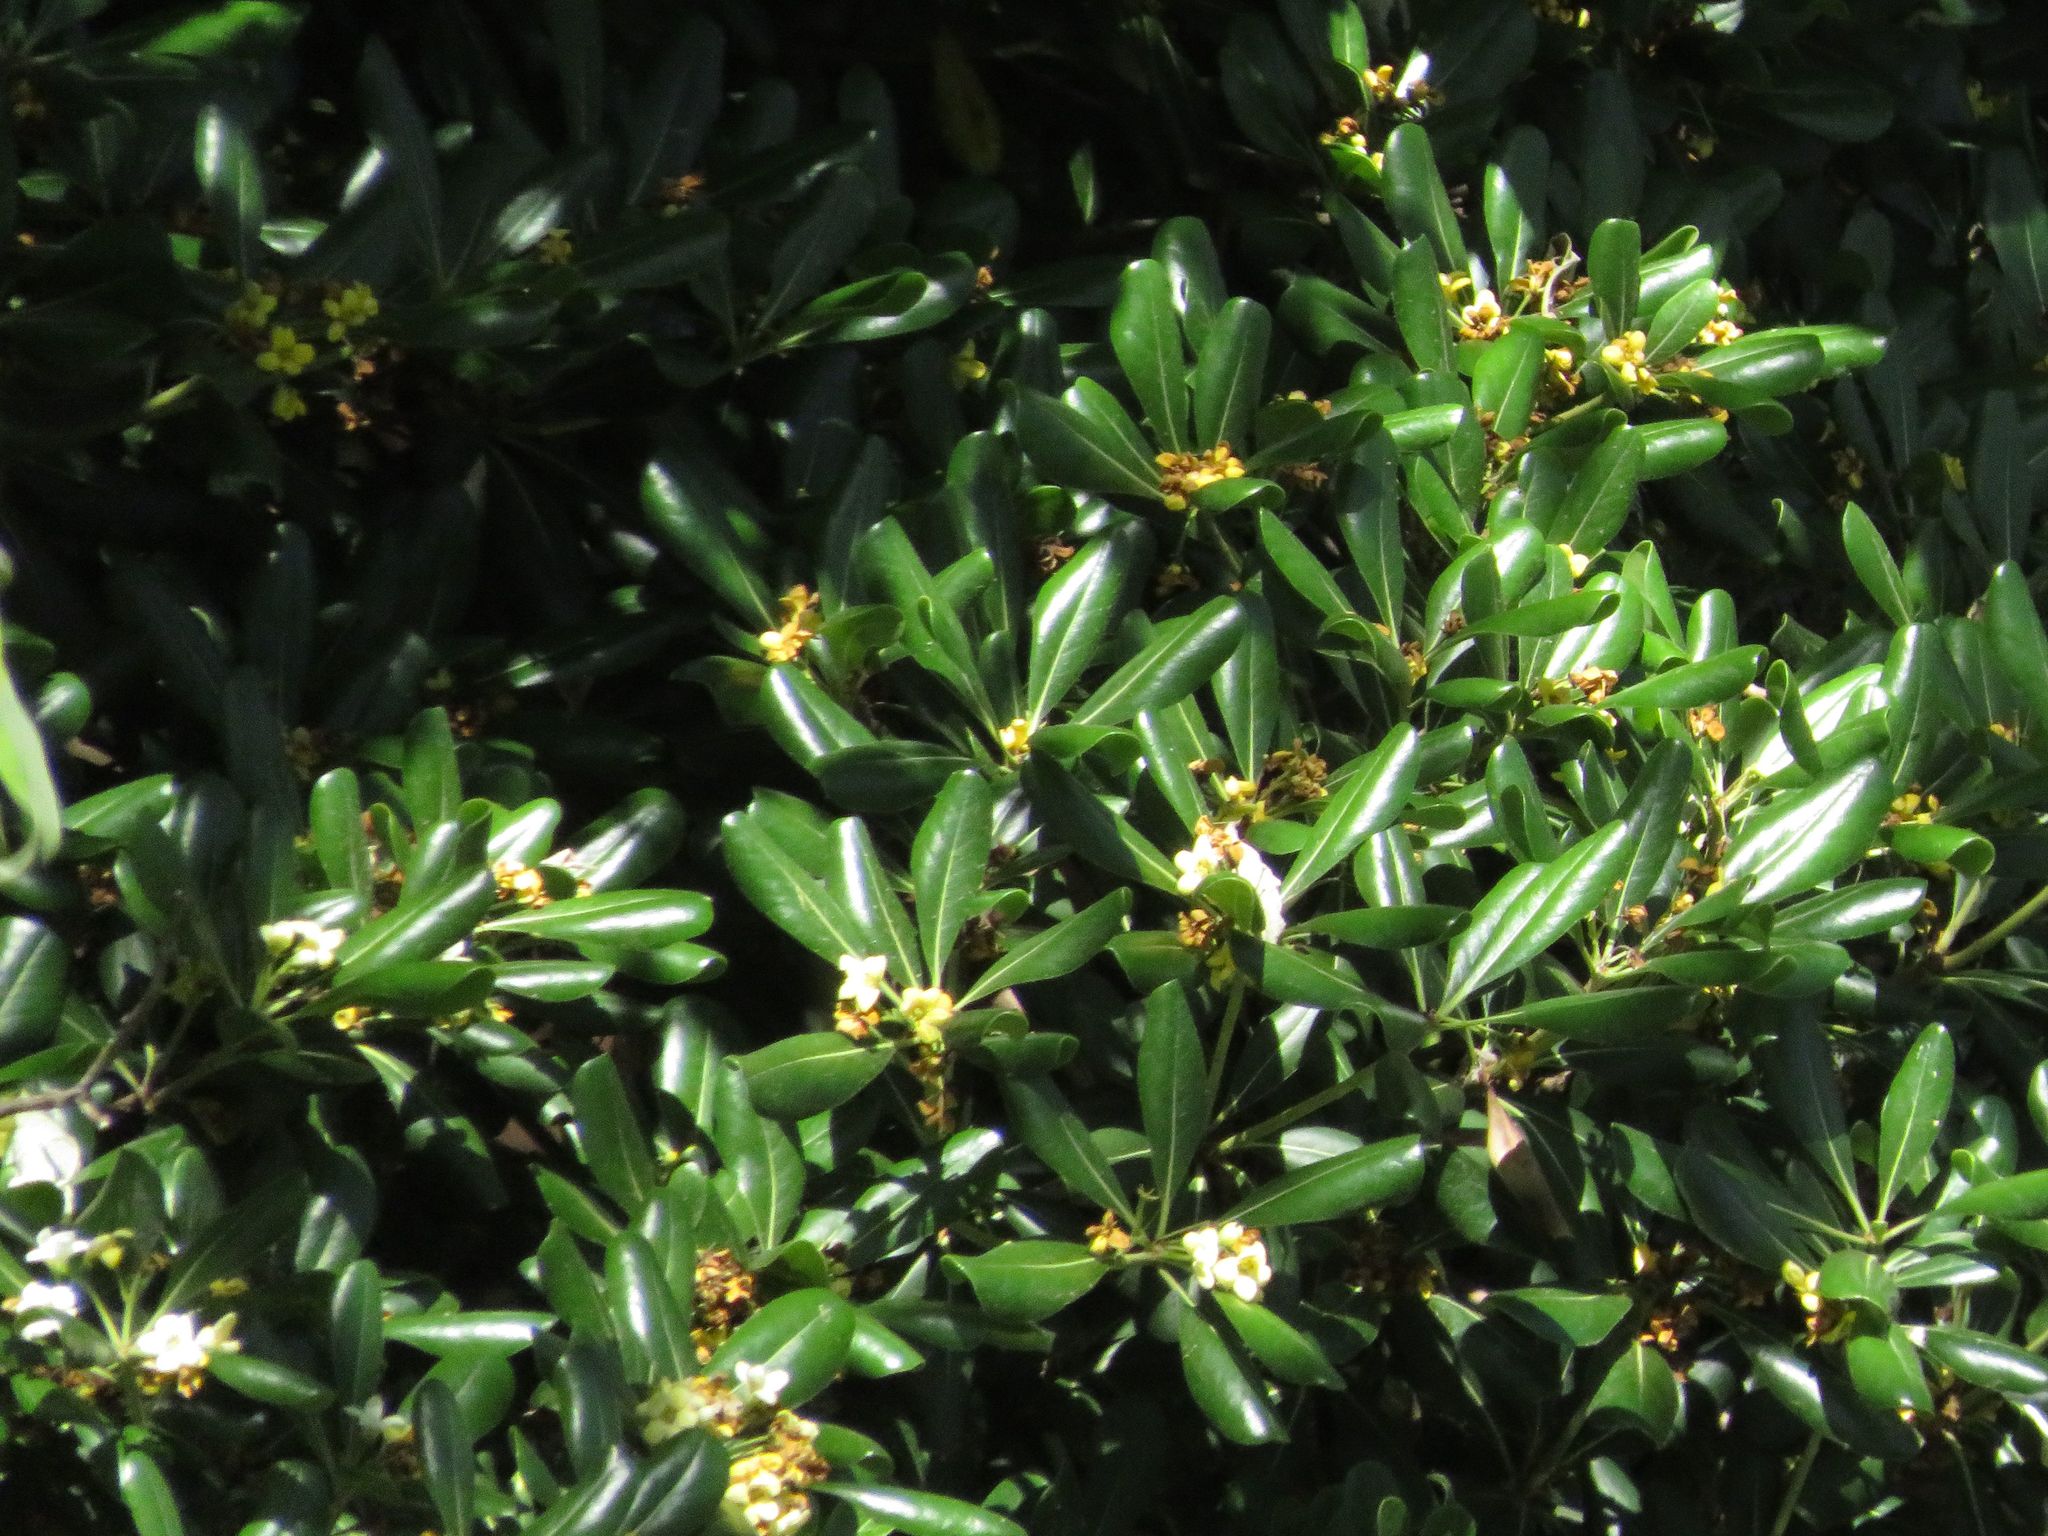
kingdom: Plantae
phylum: Tracheophyta
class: Magnoliopsida
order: Apiales
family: Pittosporaceae
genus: Pittosporum
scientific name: Pittosporum tobira
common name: Japanese cheesewood
